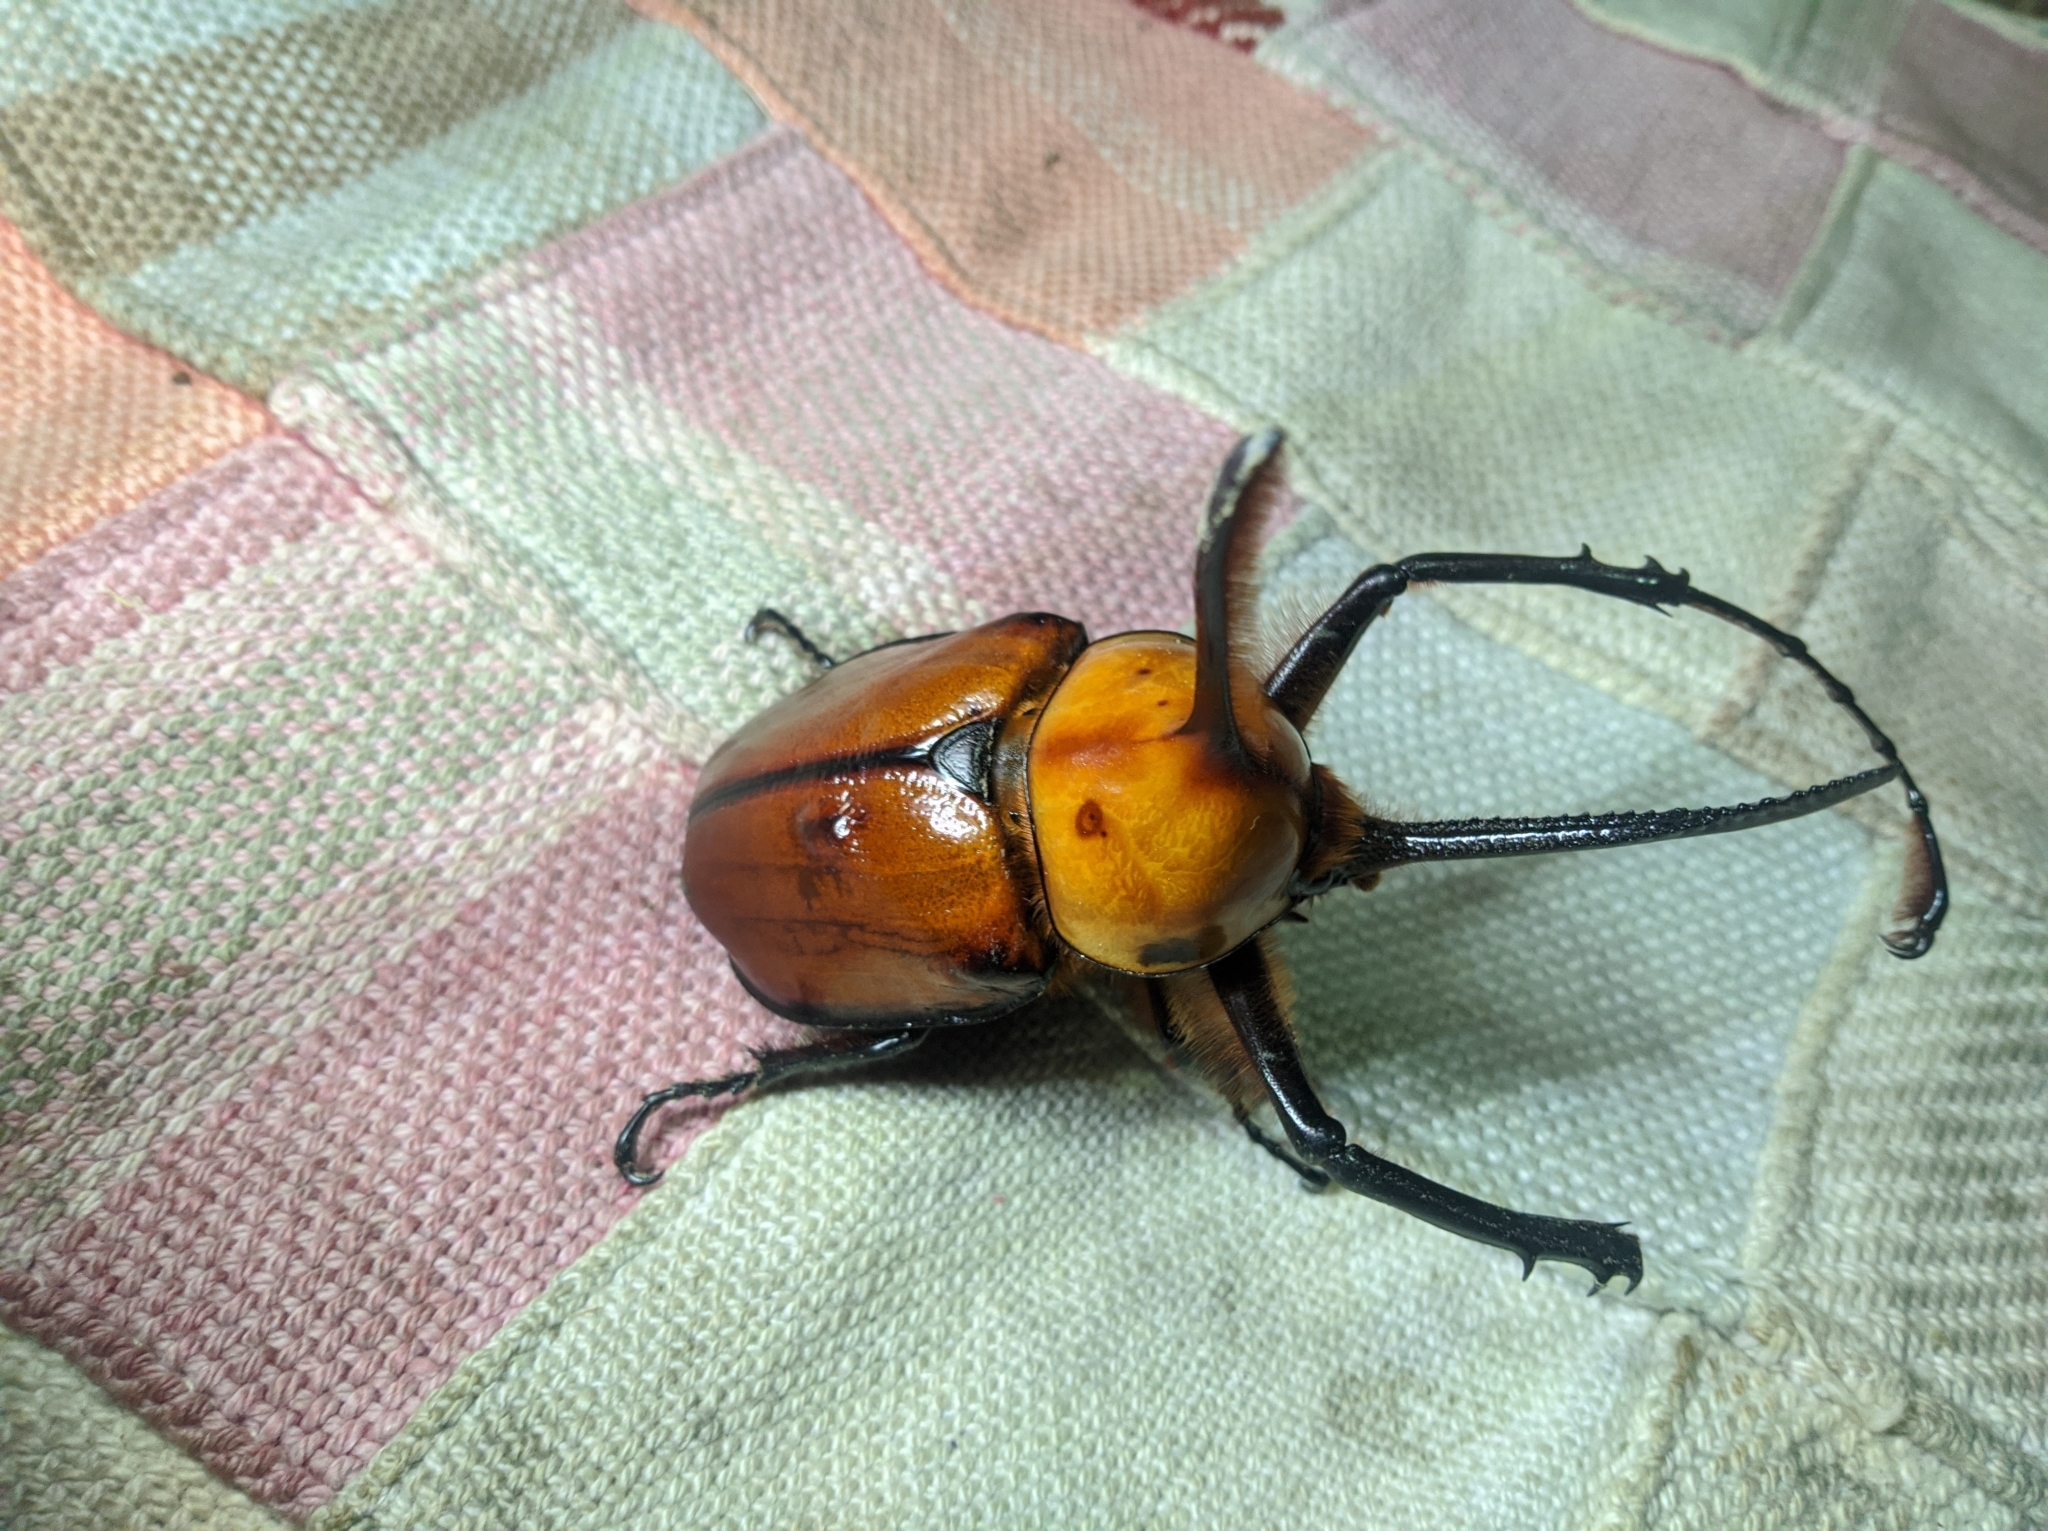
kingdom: Animalia
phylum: Arthropoda
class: Insecta
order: Coleoptera
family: Scarabaeidae
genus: Golofa
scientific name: Golofa porteri
